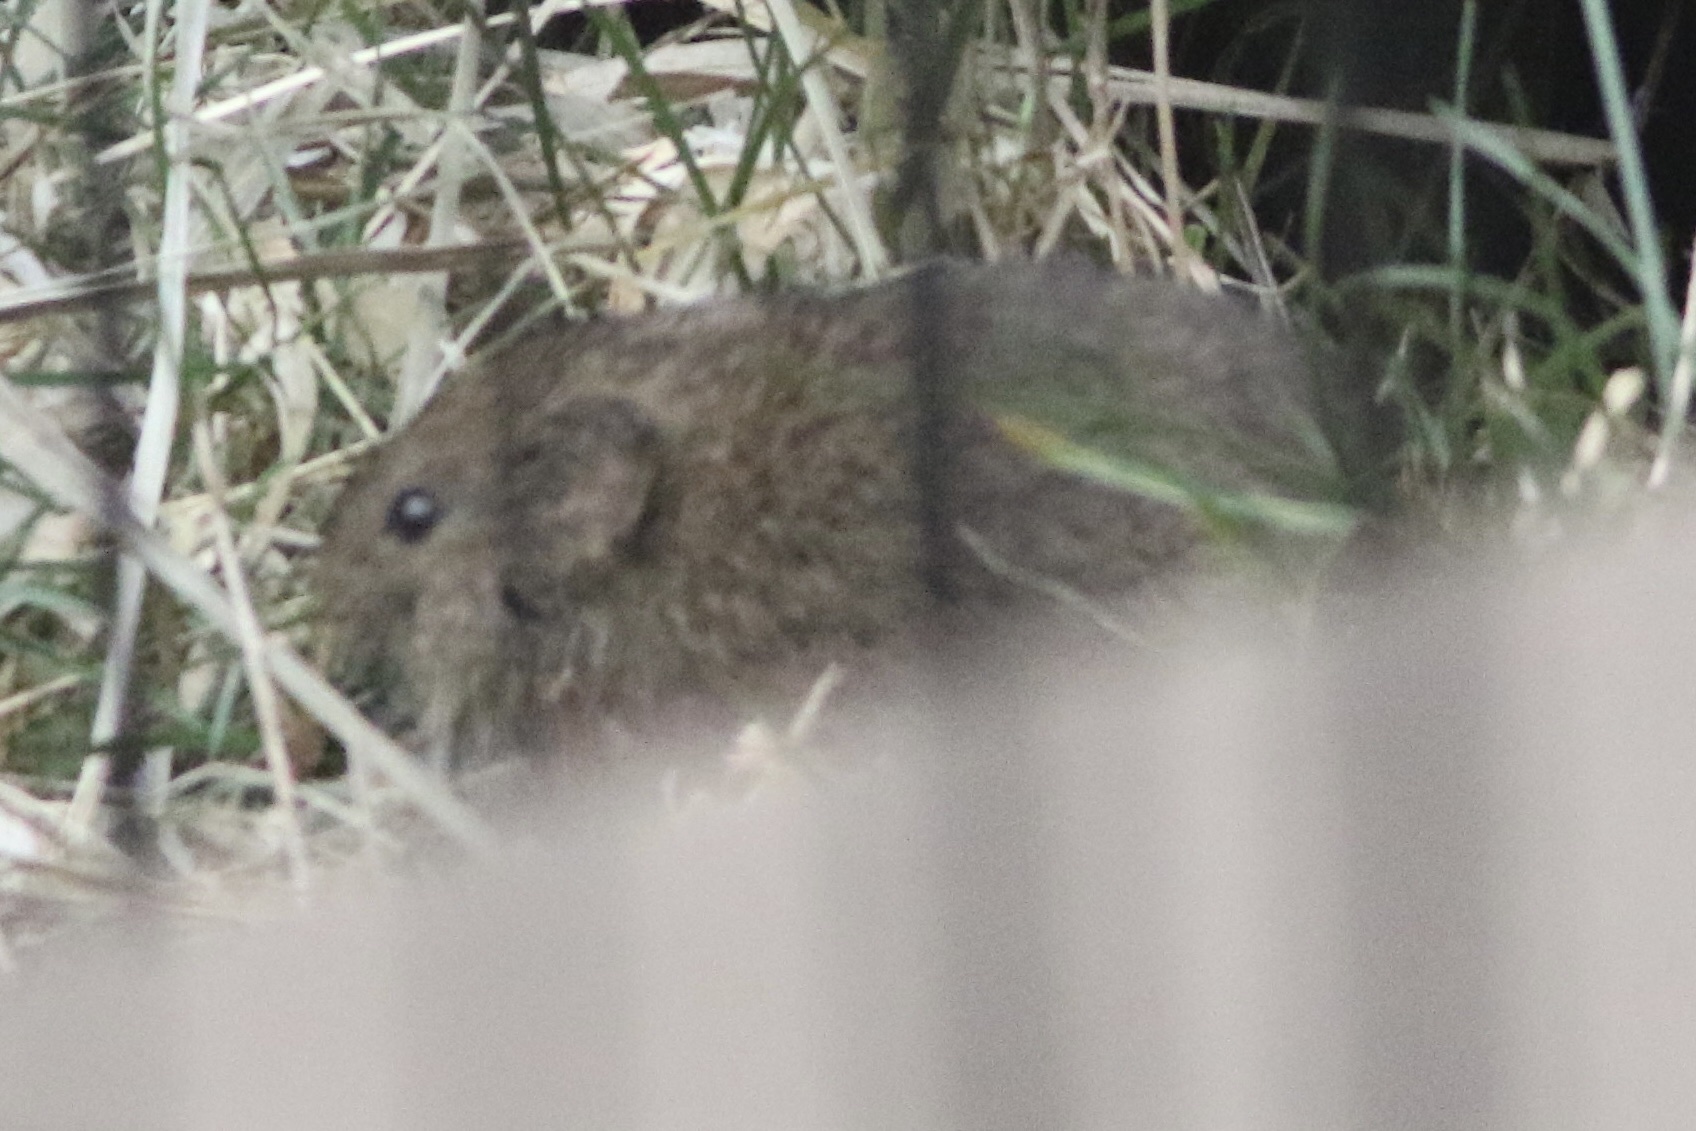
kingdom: Animalia
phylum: Chordata
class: Mammalia
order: Rodentia
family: Cricetidae
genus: Microtus
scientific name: Microtus californicus
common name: California vole
